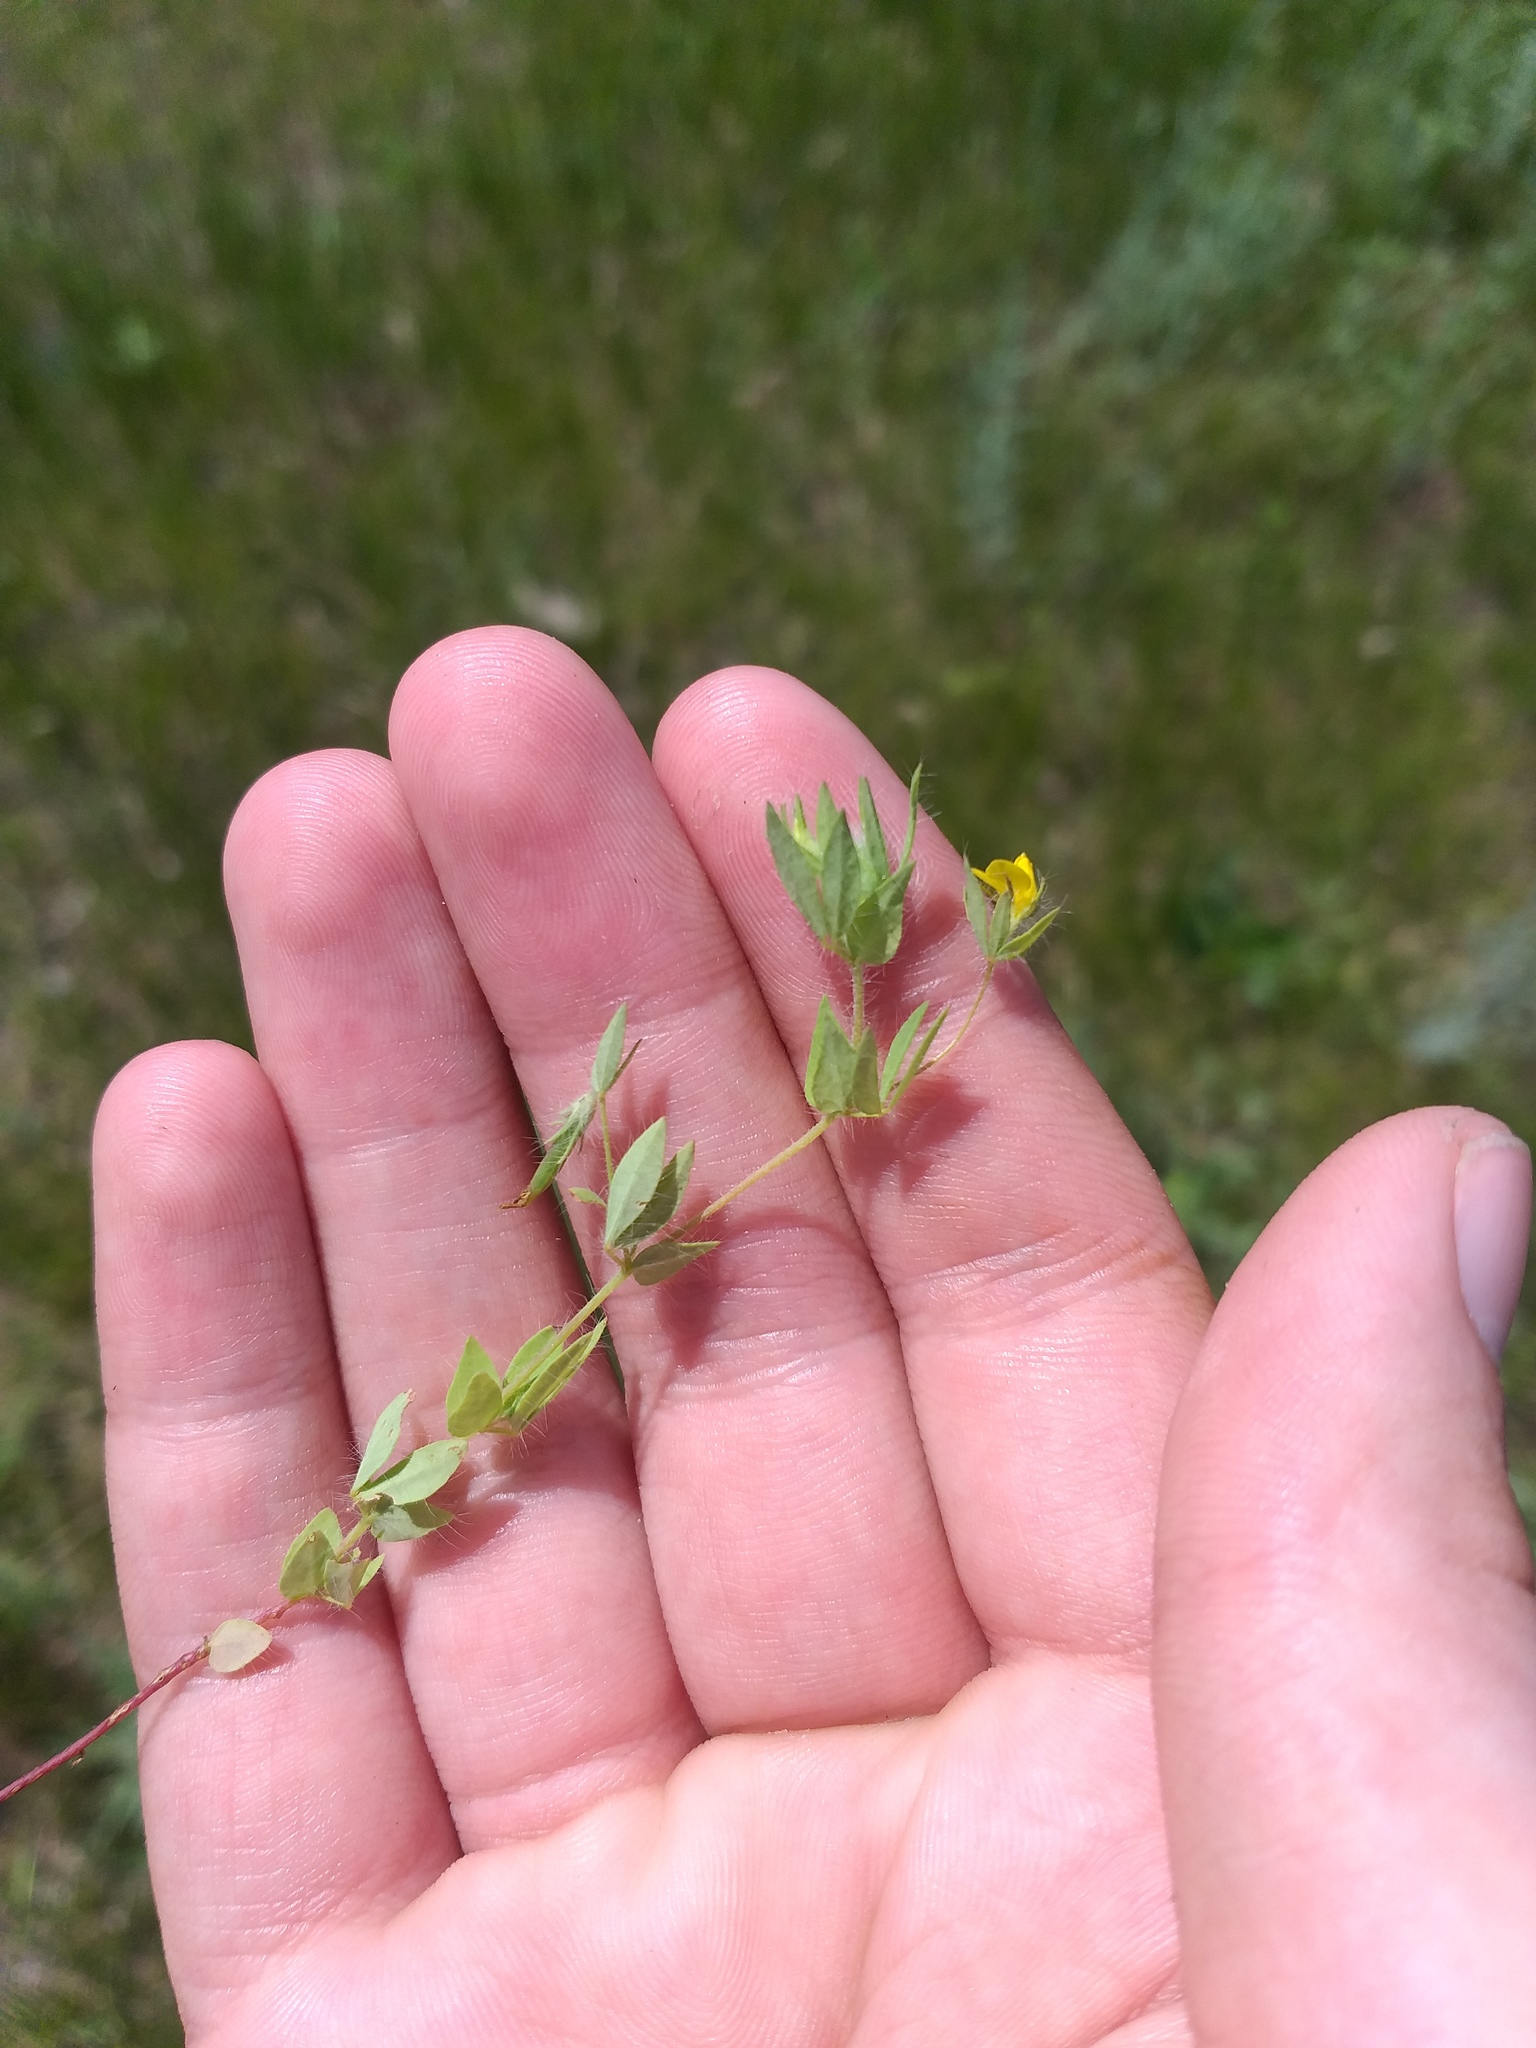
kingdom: Plantae
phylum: Tracheophyta
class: Magnoliopsida
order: Fabales
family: Fabaceae
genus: Lotus
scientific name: Lotus angustissimus
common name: Slender bird's-foot trefoil
